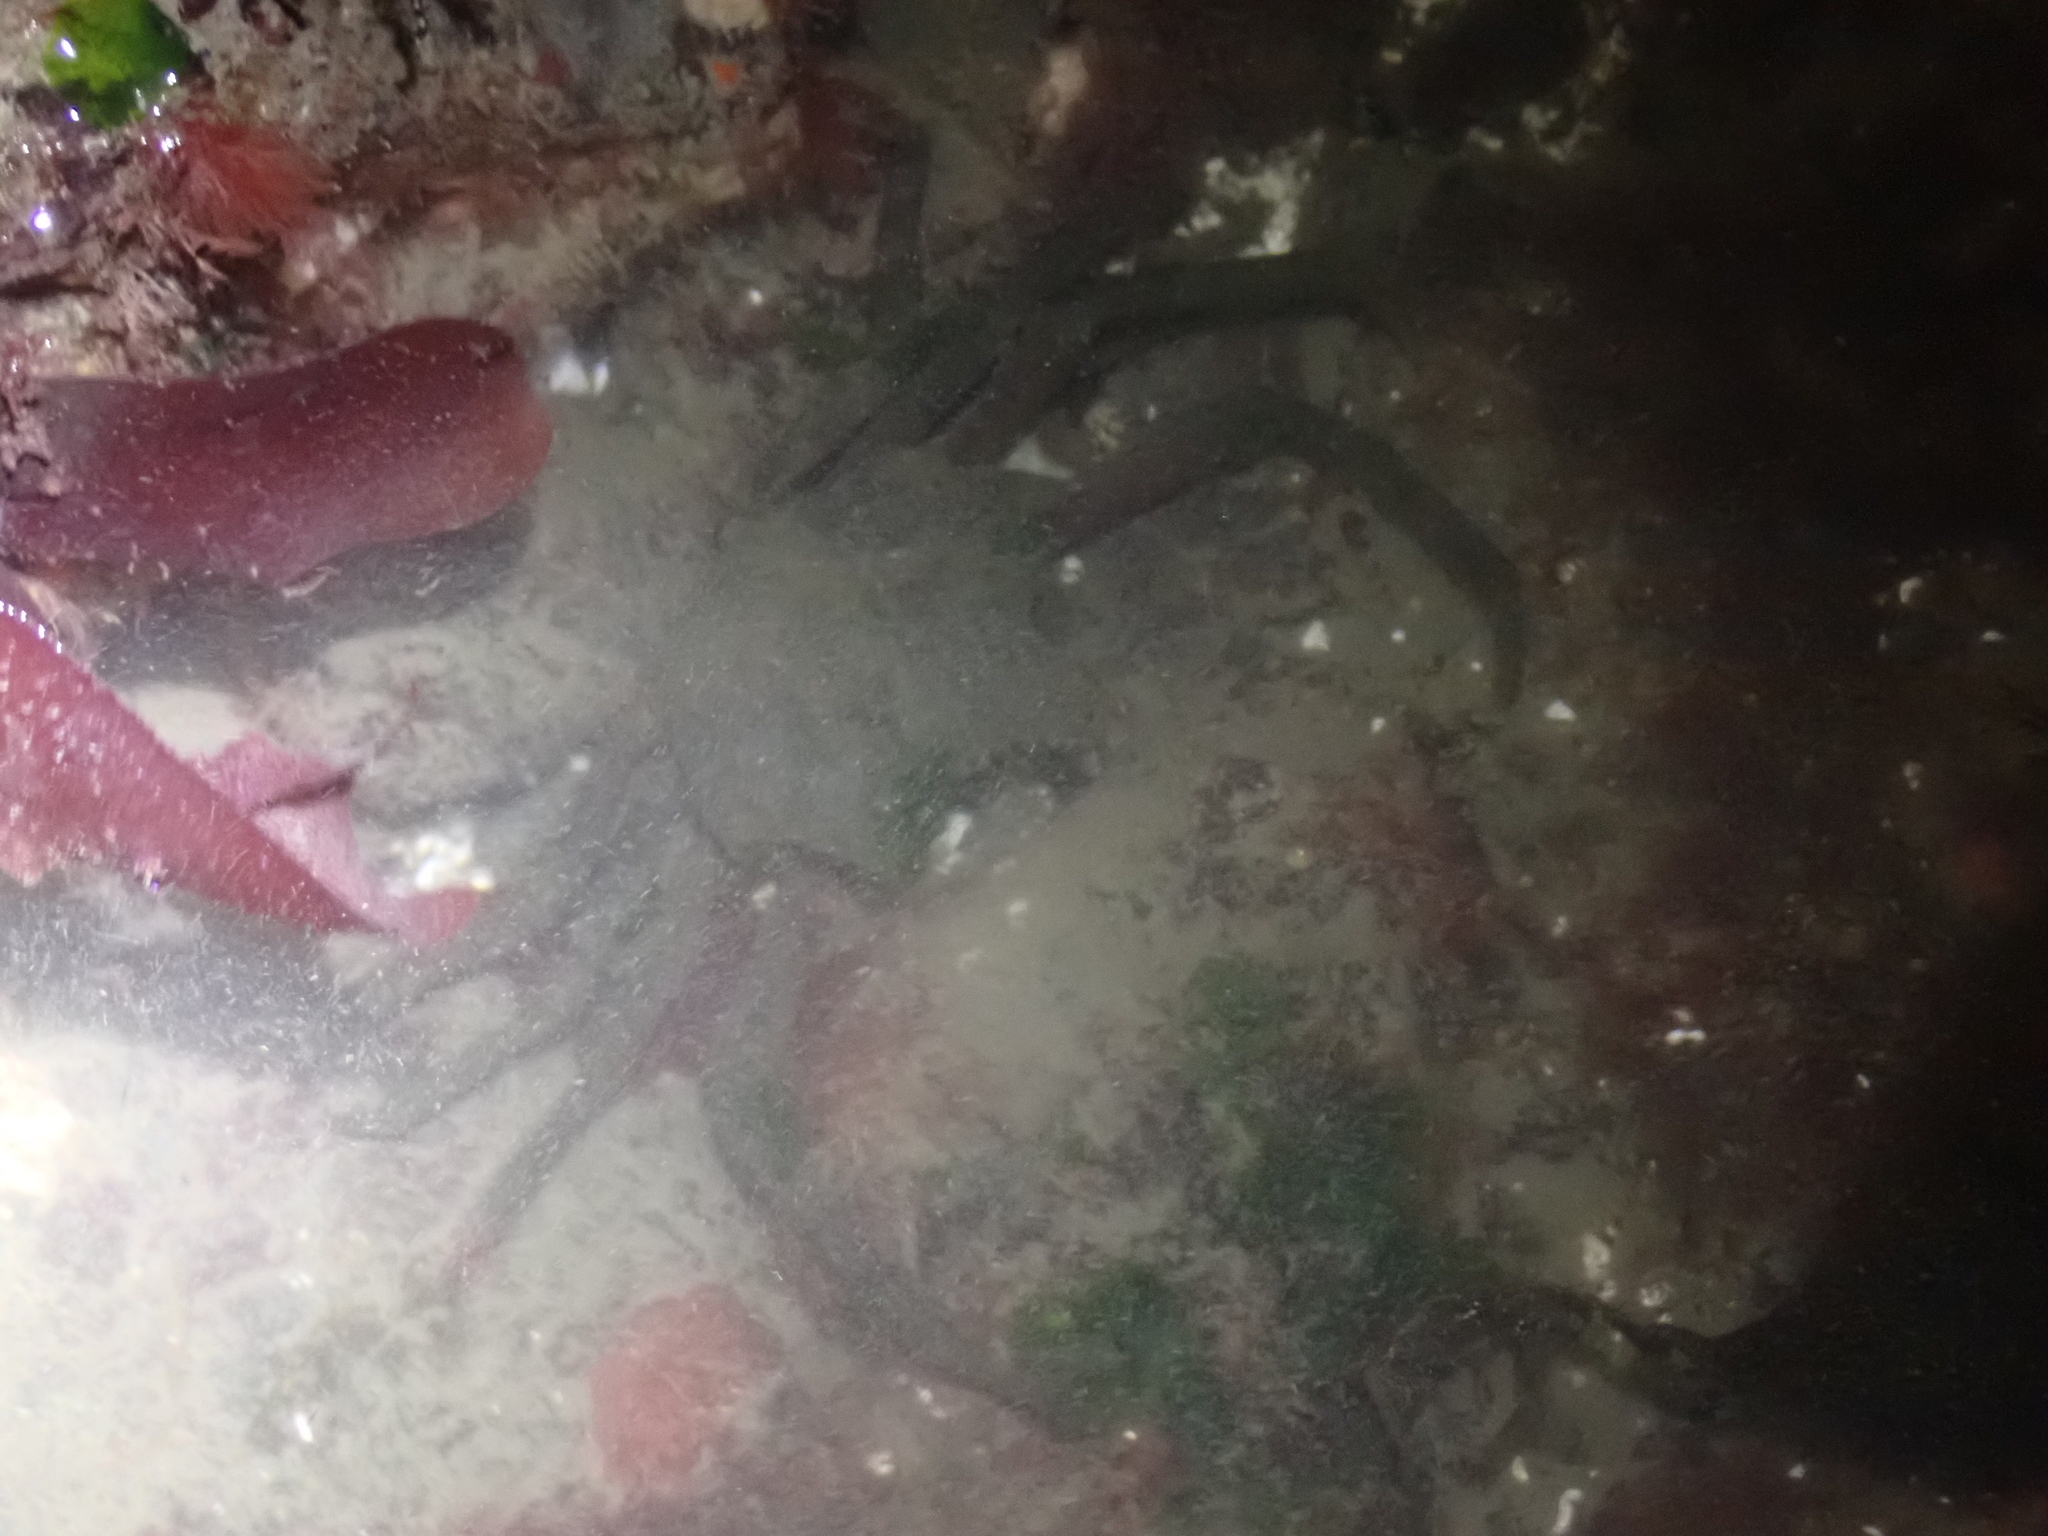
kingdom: Animalia
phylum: Arthropoda
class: Malacostraca
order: Decapoda
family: Epialtidae
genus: Pugettia
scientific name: Pugettia producta
